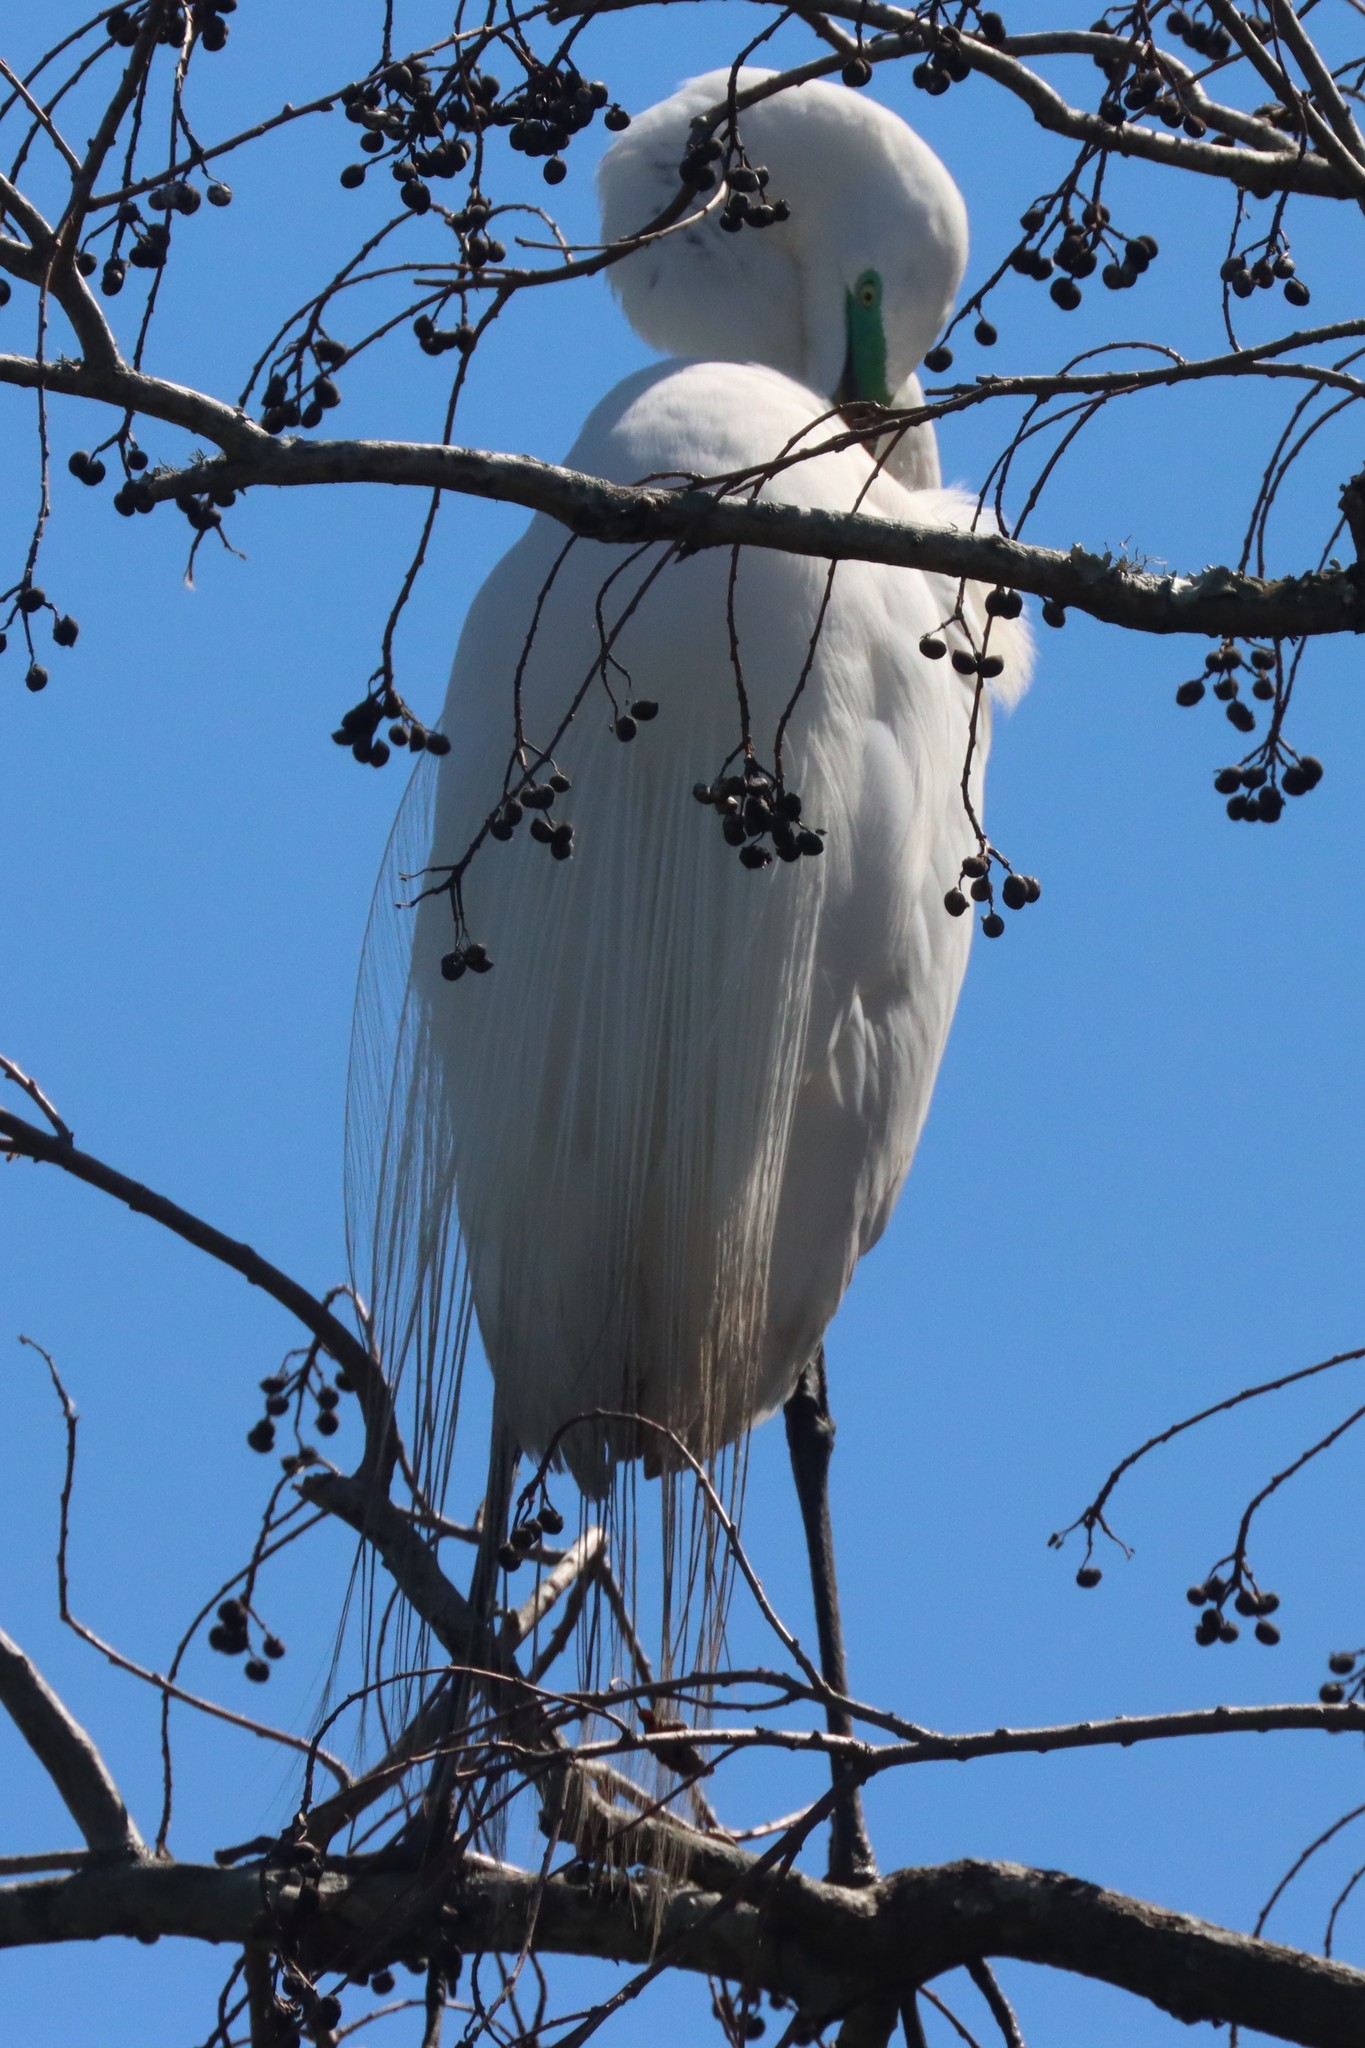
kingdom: Animalia
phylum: Chordata
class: Aves
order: Pelecaniformes
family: Ardeidae
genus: Ardea
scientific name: Ardea alba
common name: Great egret
